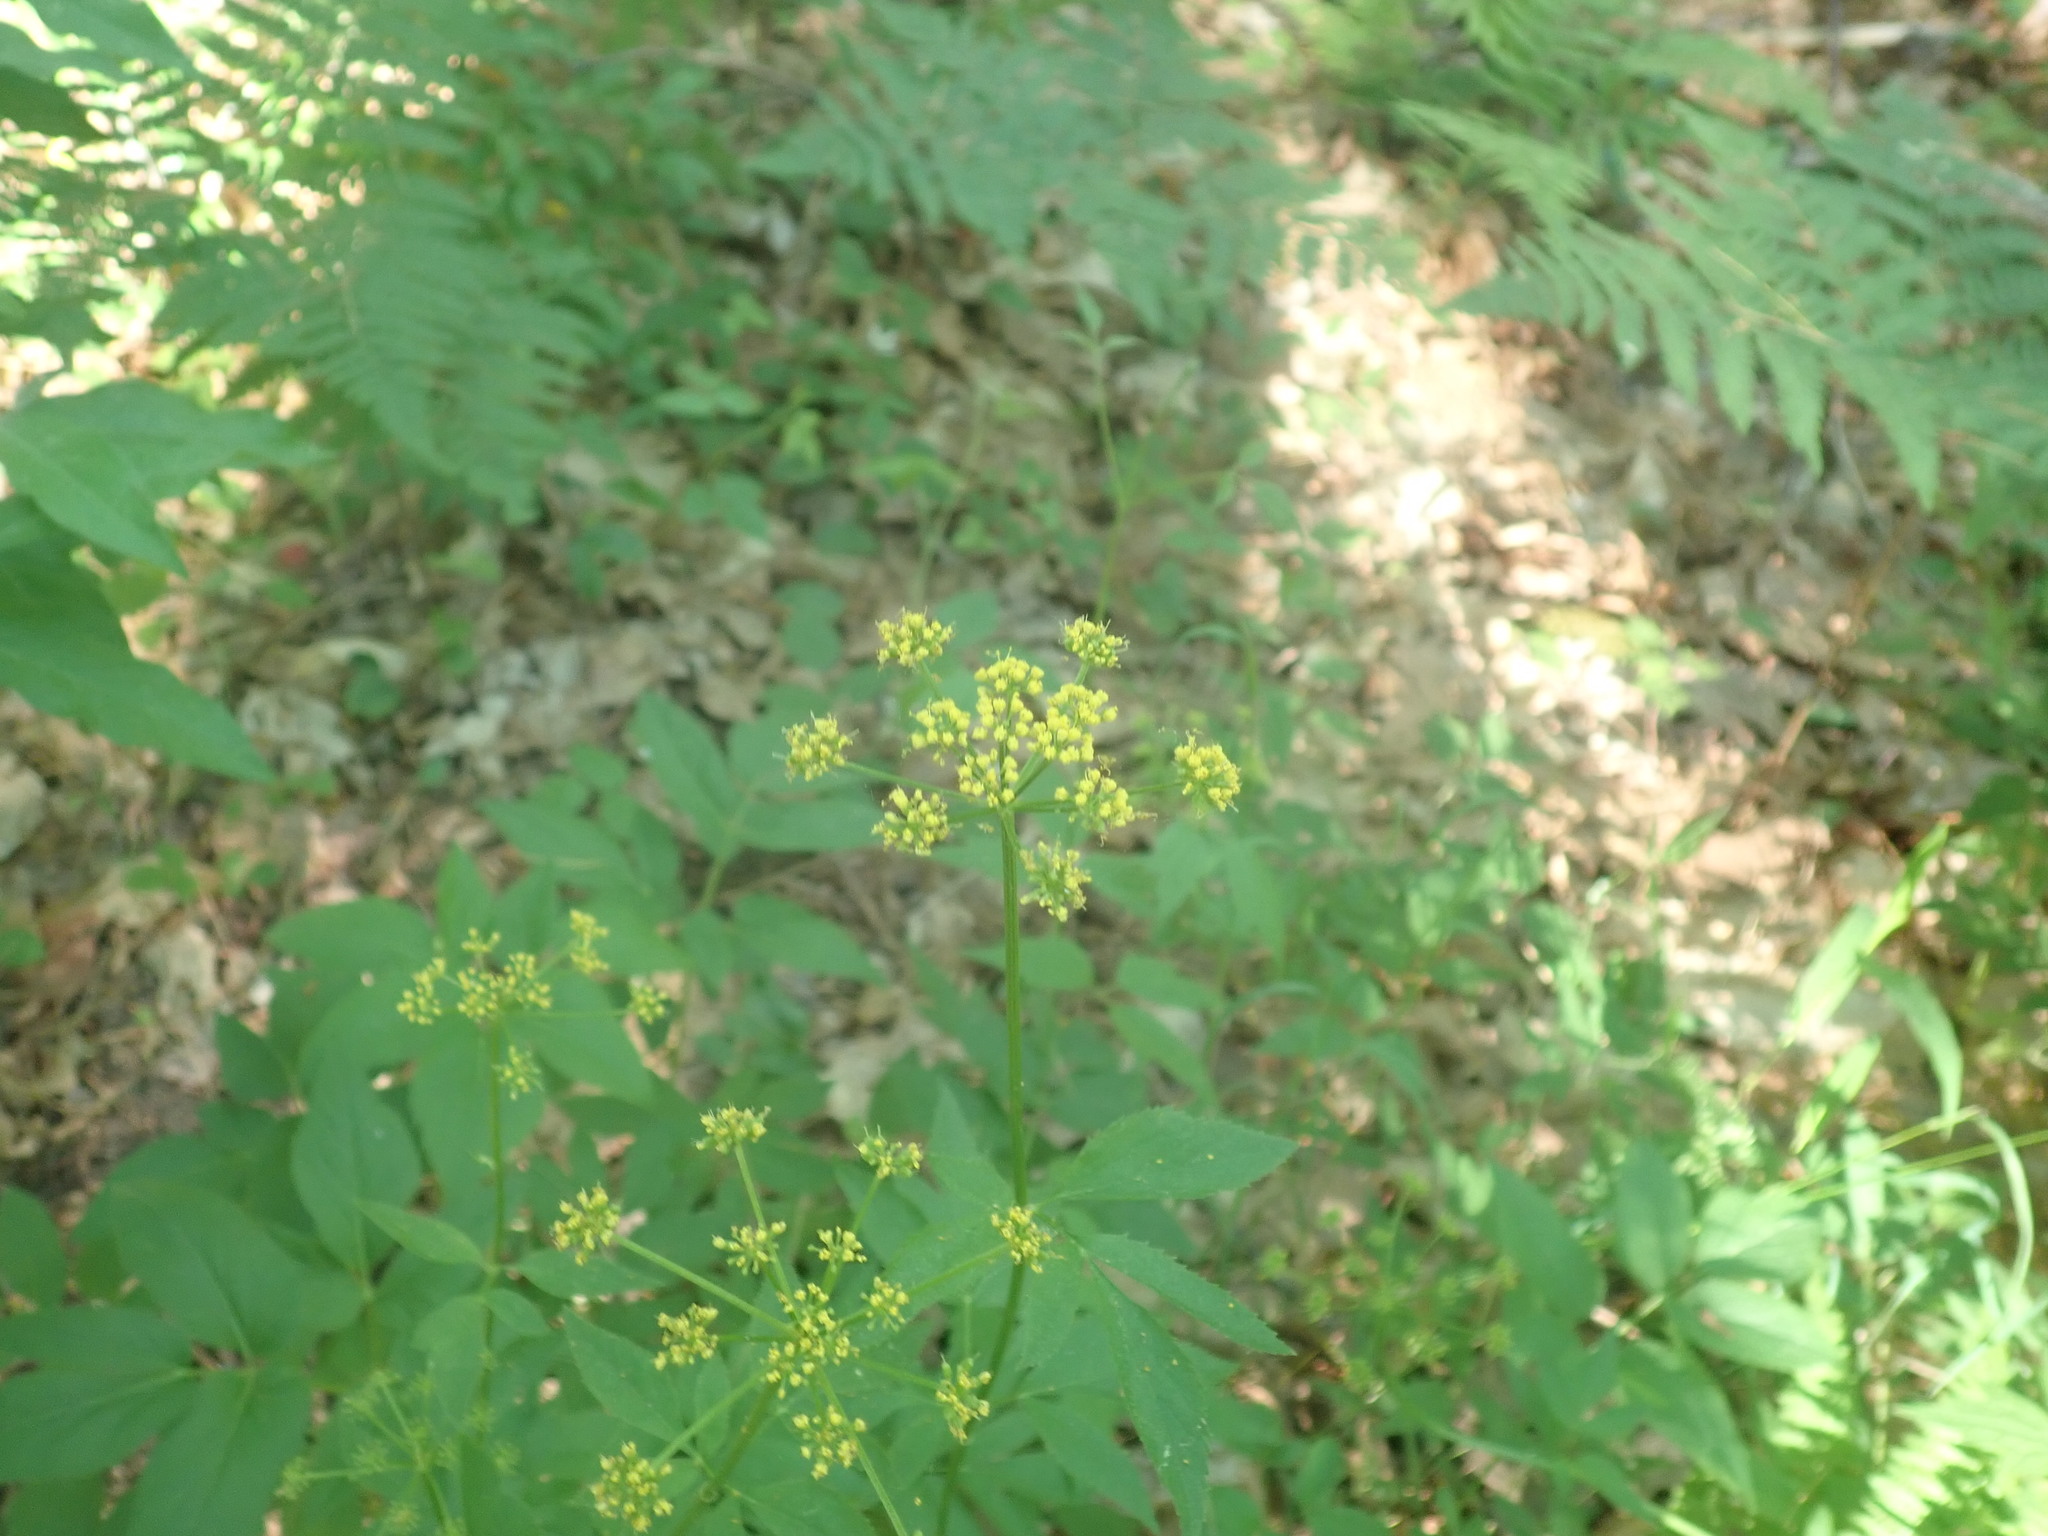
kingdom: Plantae
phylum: Tracheophyta
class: Magnoliopsida
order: Apiales
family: Apiaceae
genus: Zizia
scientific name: Zizia aurea
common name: Golden alexanders
